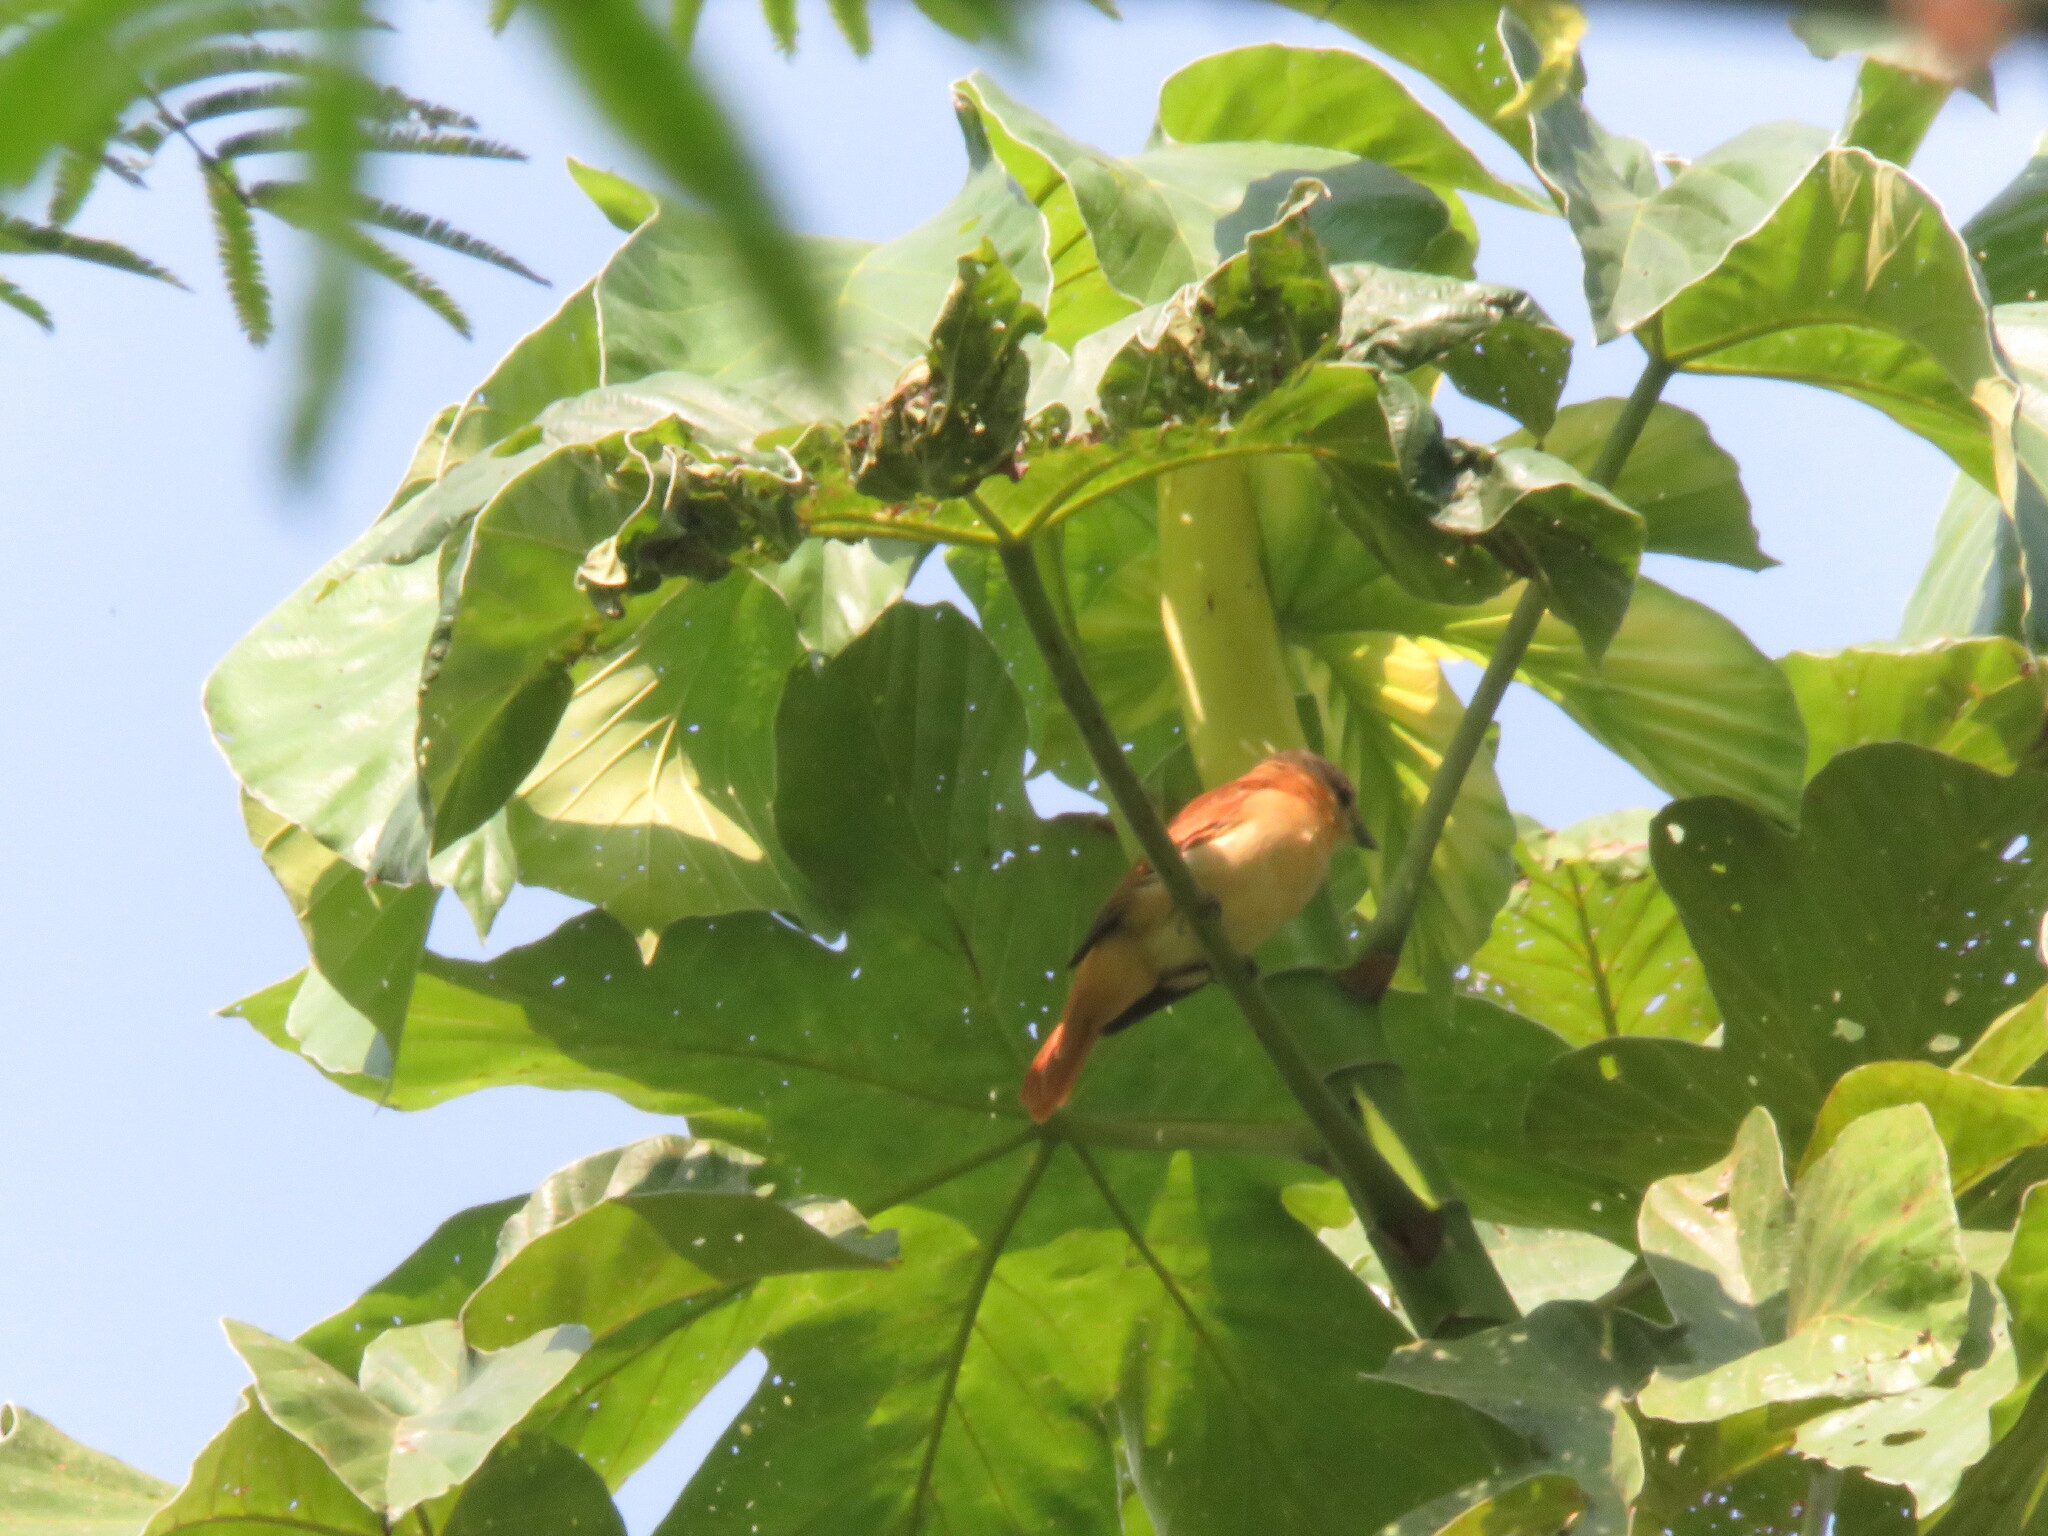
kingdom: Animalia
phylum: Chordata
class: Aves
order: Passeriformes
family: Cotingidae
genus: Pachyramphus
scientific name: Pachyramphus minor
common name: Pink-throated becard
